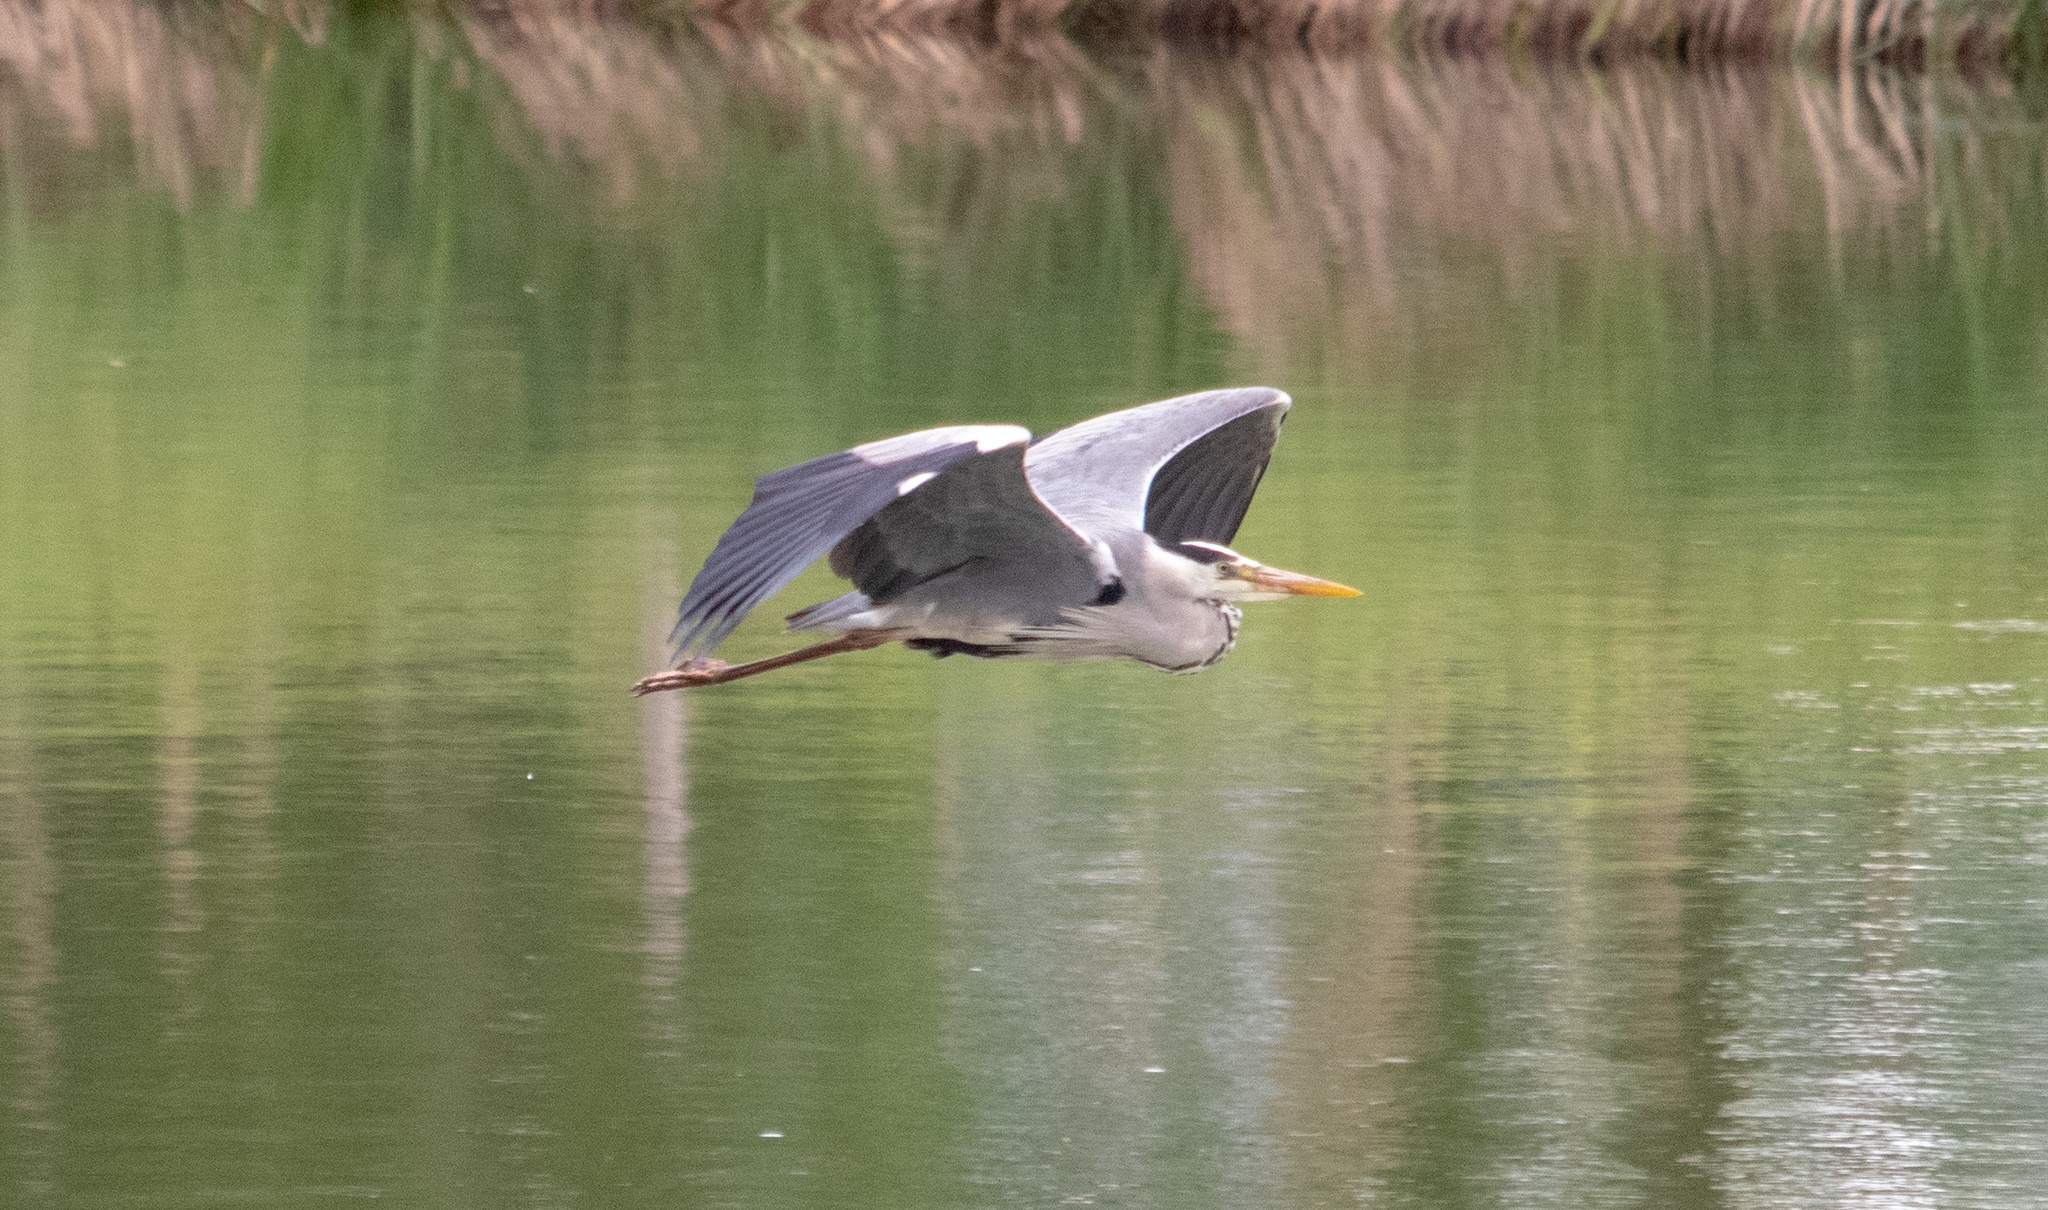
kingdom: Animalia
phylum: Chordata
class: Aves
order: Pelecaniformes
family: Ardeidae
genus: Ardea
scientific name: Ardea cinerea
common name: Grey heron
